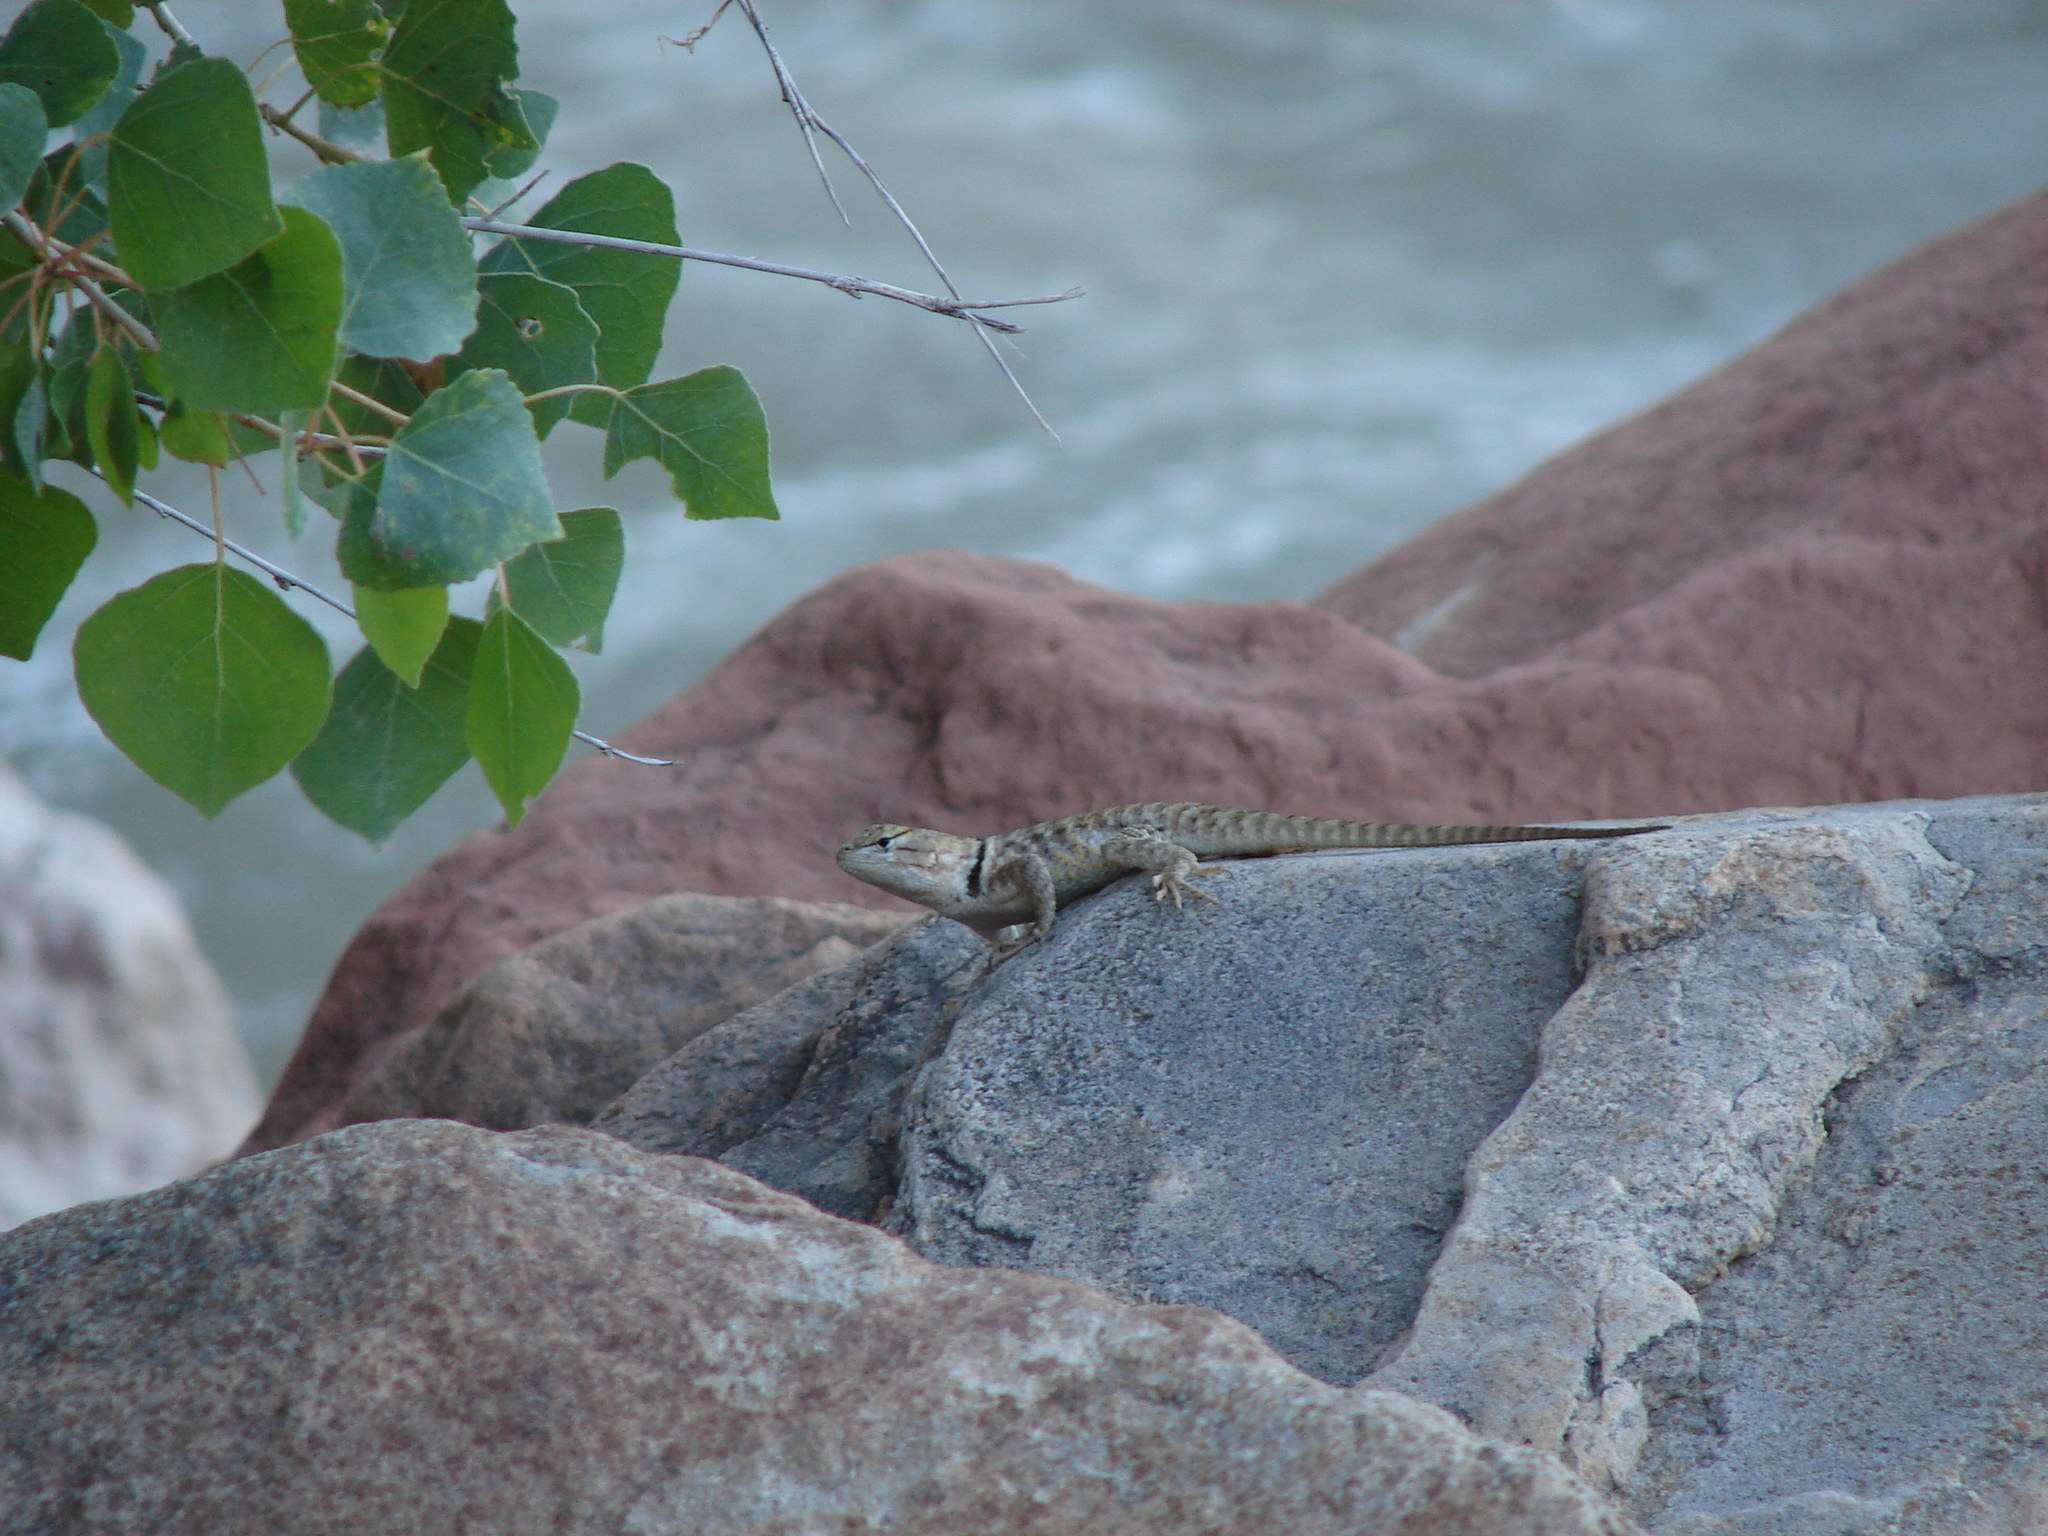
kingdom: Animalia
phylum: Chordata
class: Squamata
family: Phrynosomatidae
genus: Sceloporus
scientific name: Sceloporus uniformis
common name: Yellow-backed spiny lizard
